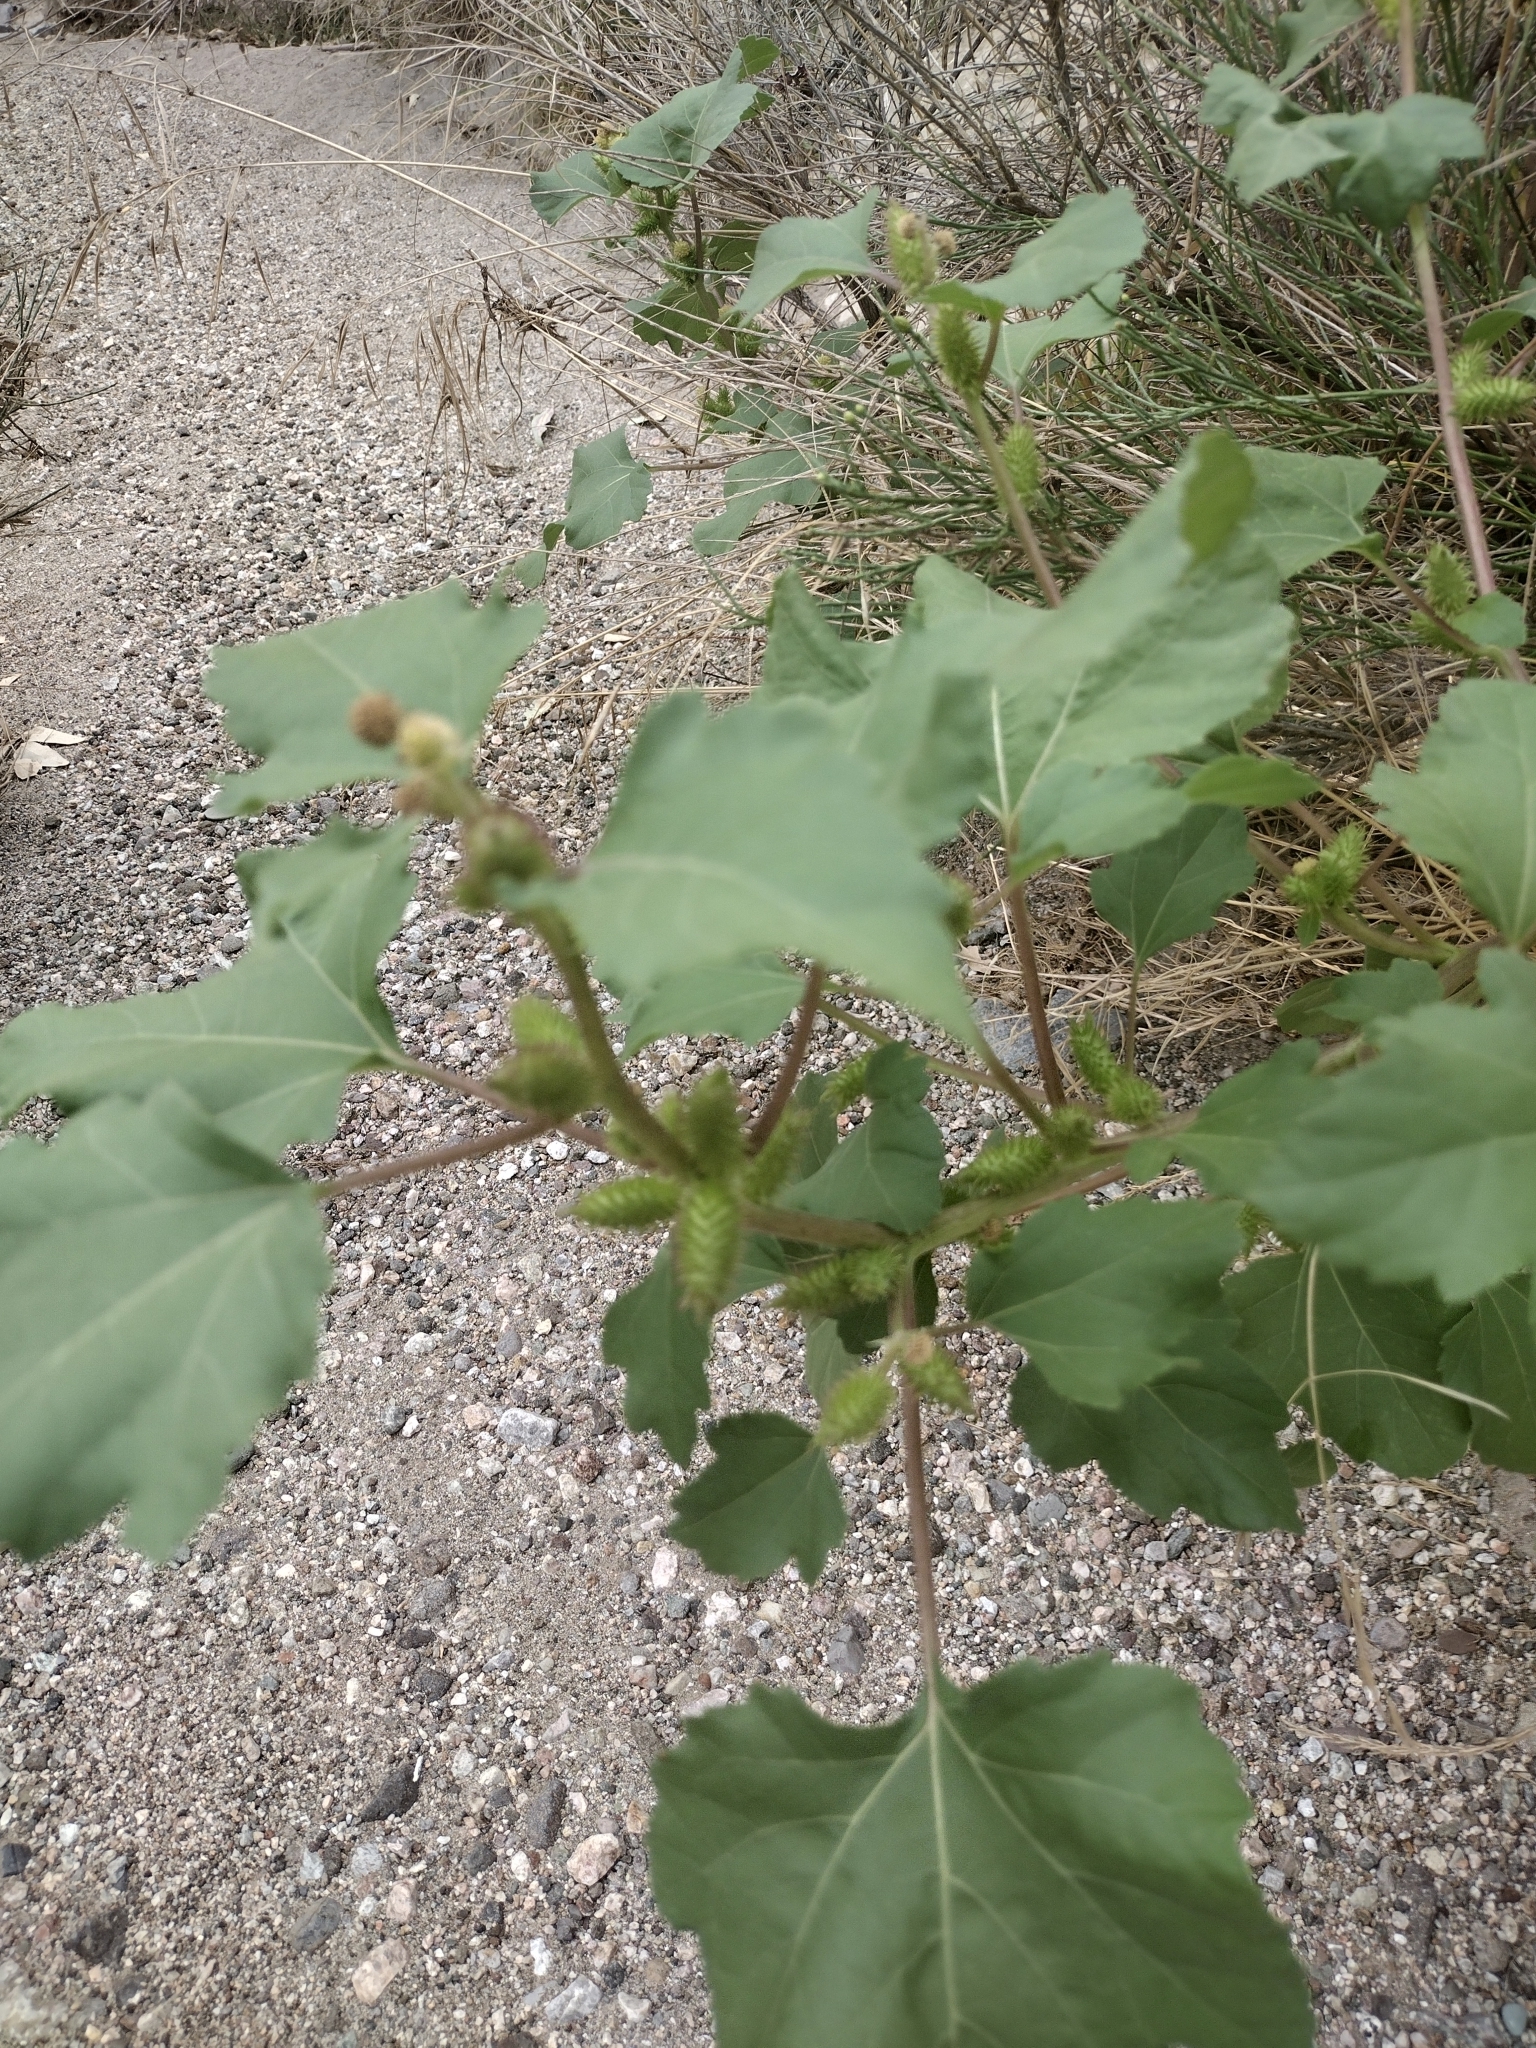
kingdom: Plantae
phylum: Tracheophyta
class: Magnoliopsida
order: Asterales
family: Asteraceae
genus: Xanthium
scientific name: Xanthium strumarium
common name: Rough cocklebur
